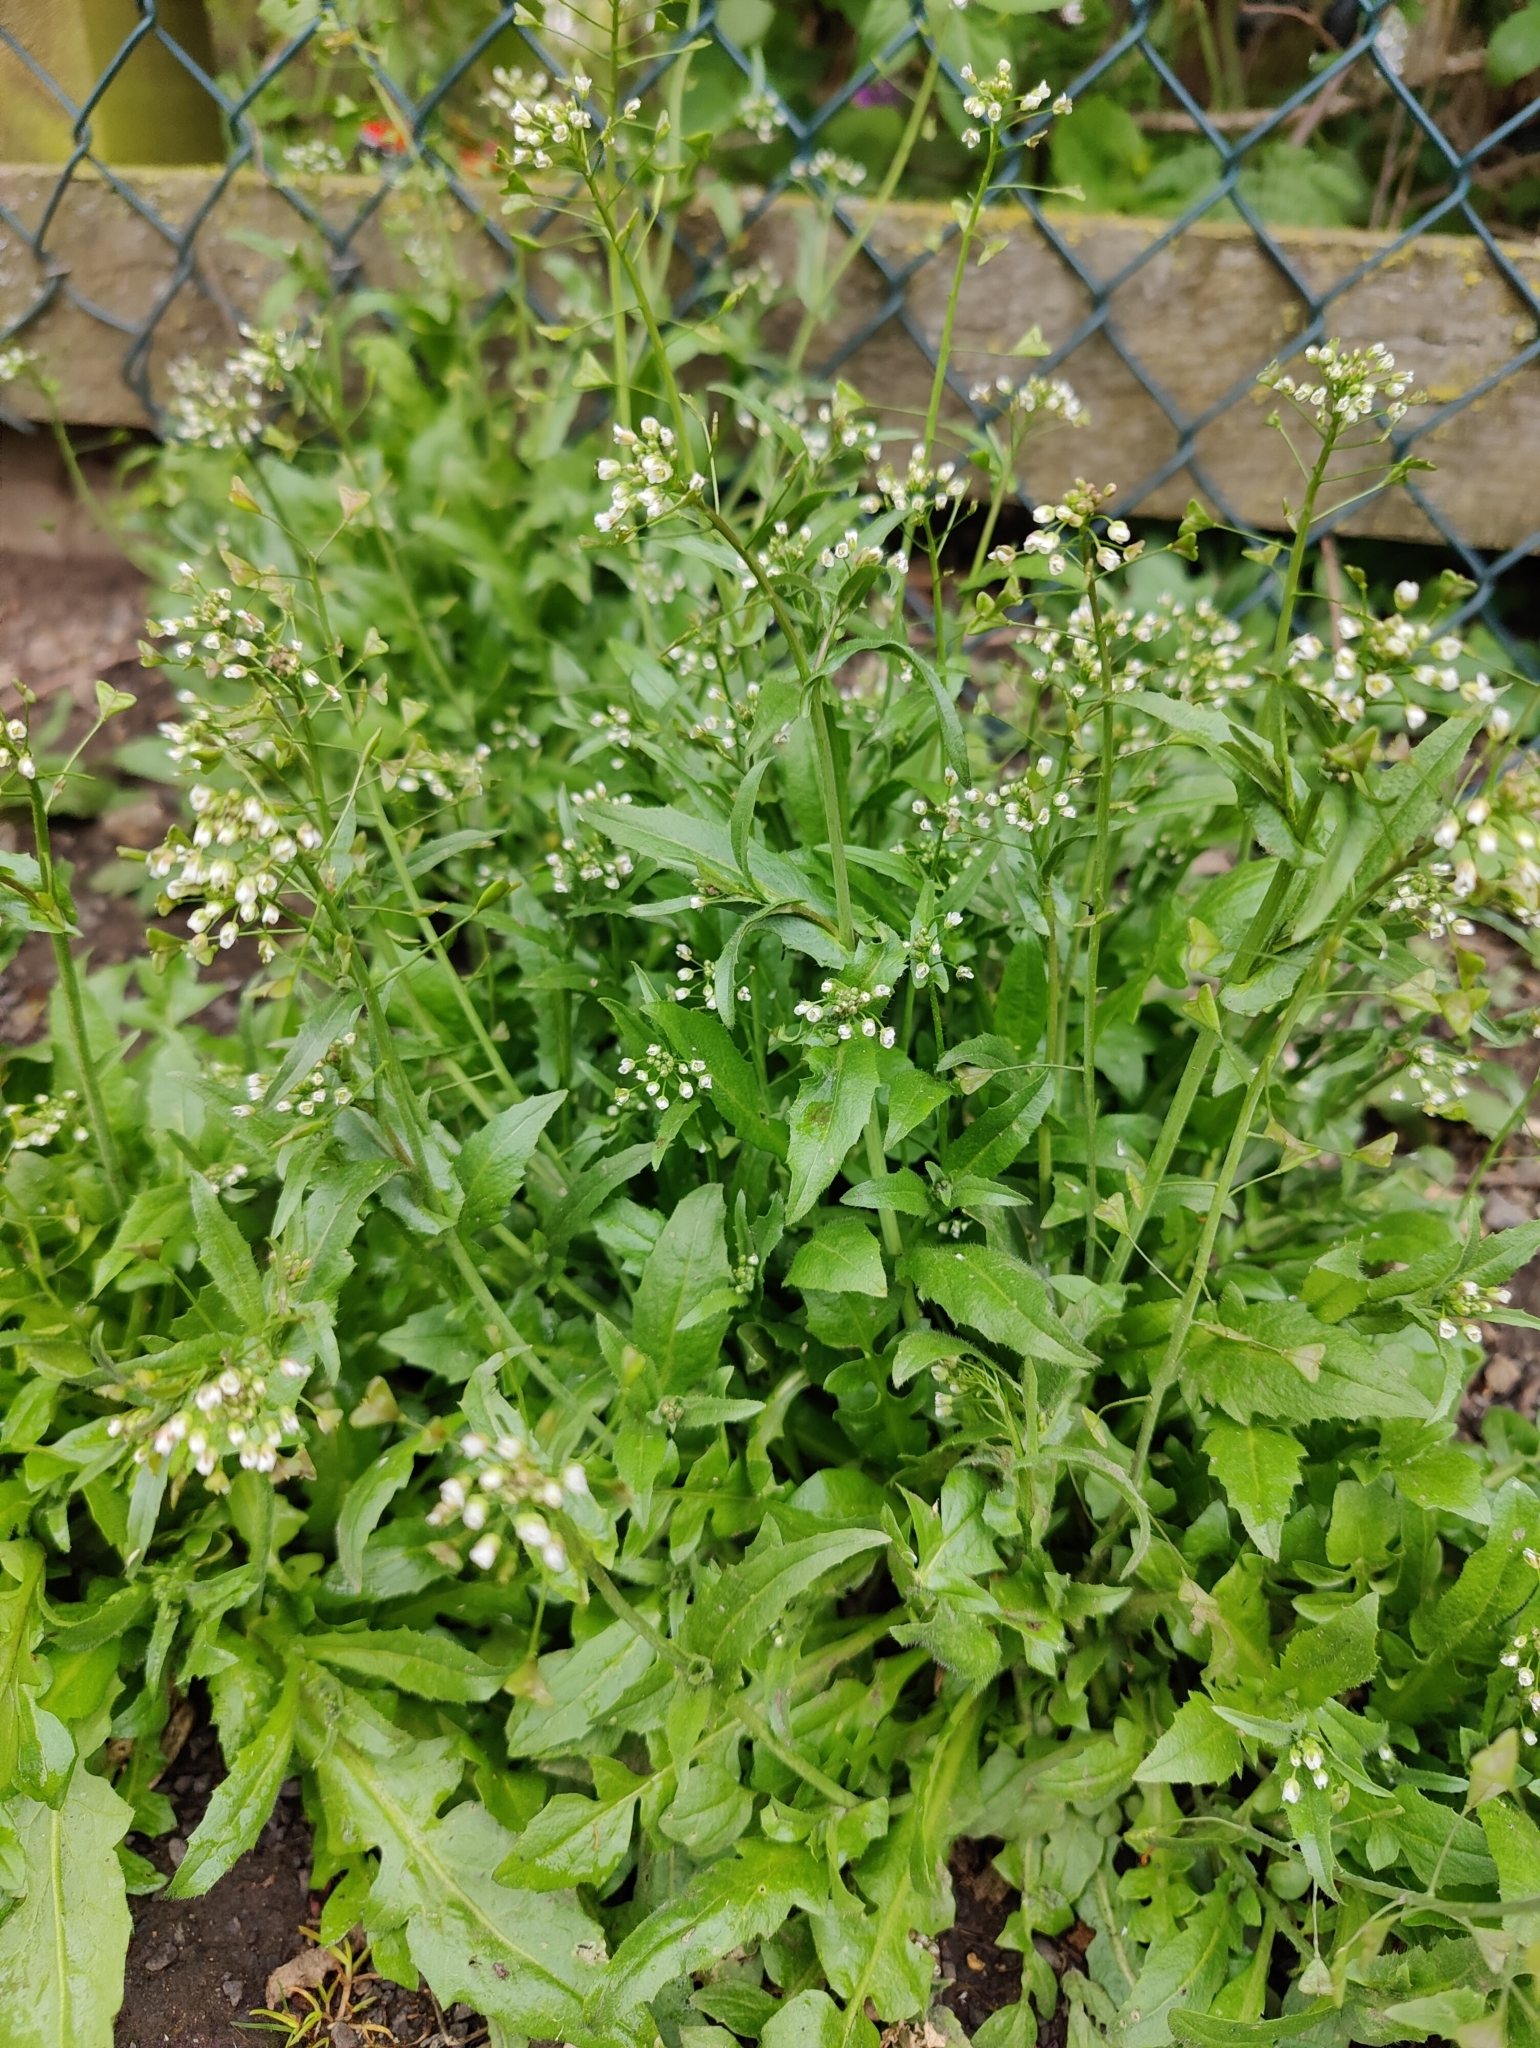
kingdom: Plantae
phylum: Tracheophyta
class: Magnoliopsida
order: Brassicales
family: Brassicaceae
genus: Capsella
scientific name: Capsella bursa-pastoris
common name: Shepherd's purse
